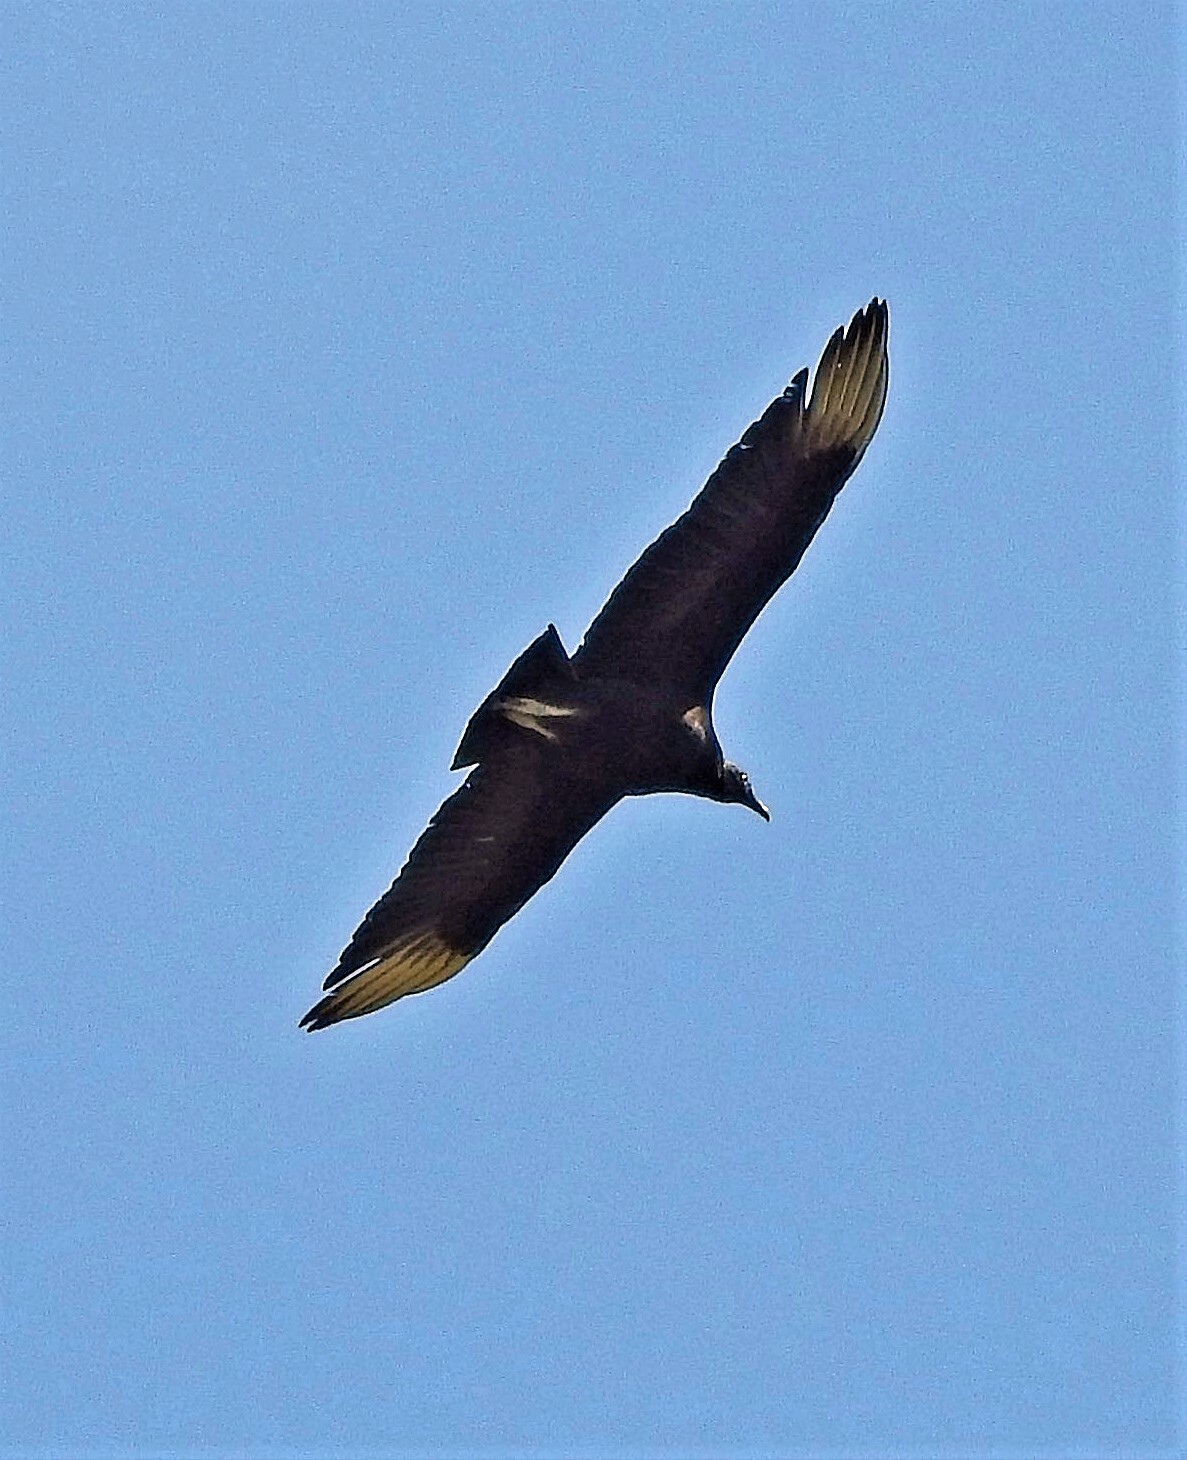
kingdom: Animalia
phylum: Chordata
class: Aves
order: Accipitriformes
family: Cathartidae
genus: Coragyps
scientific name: Coragyps atratus
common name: Black vulture
